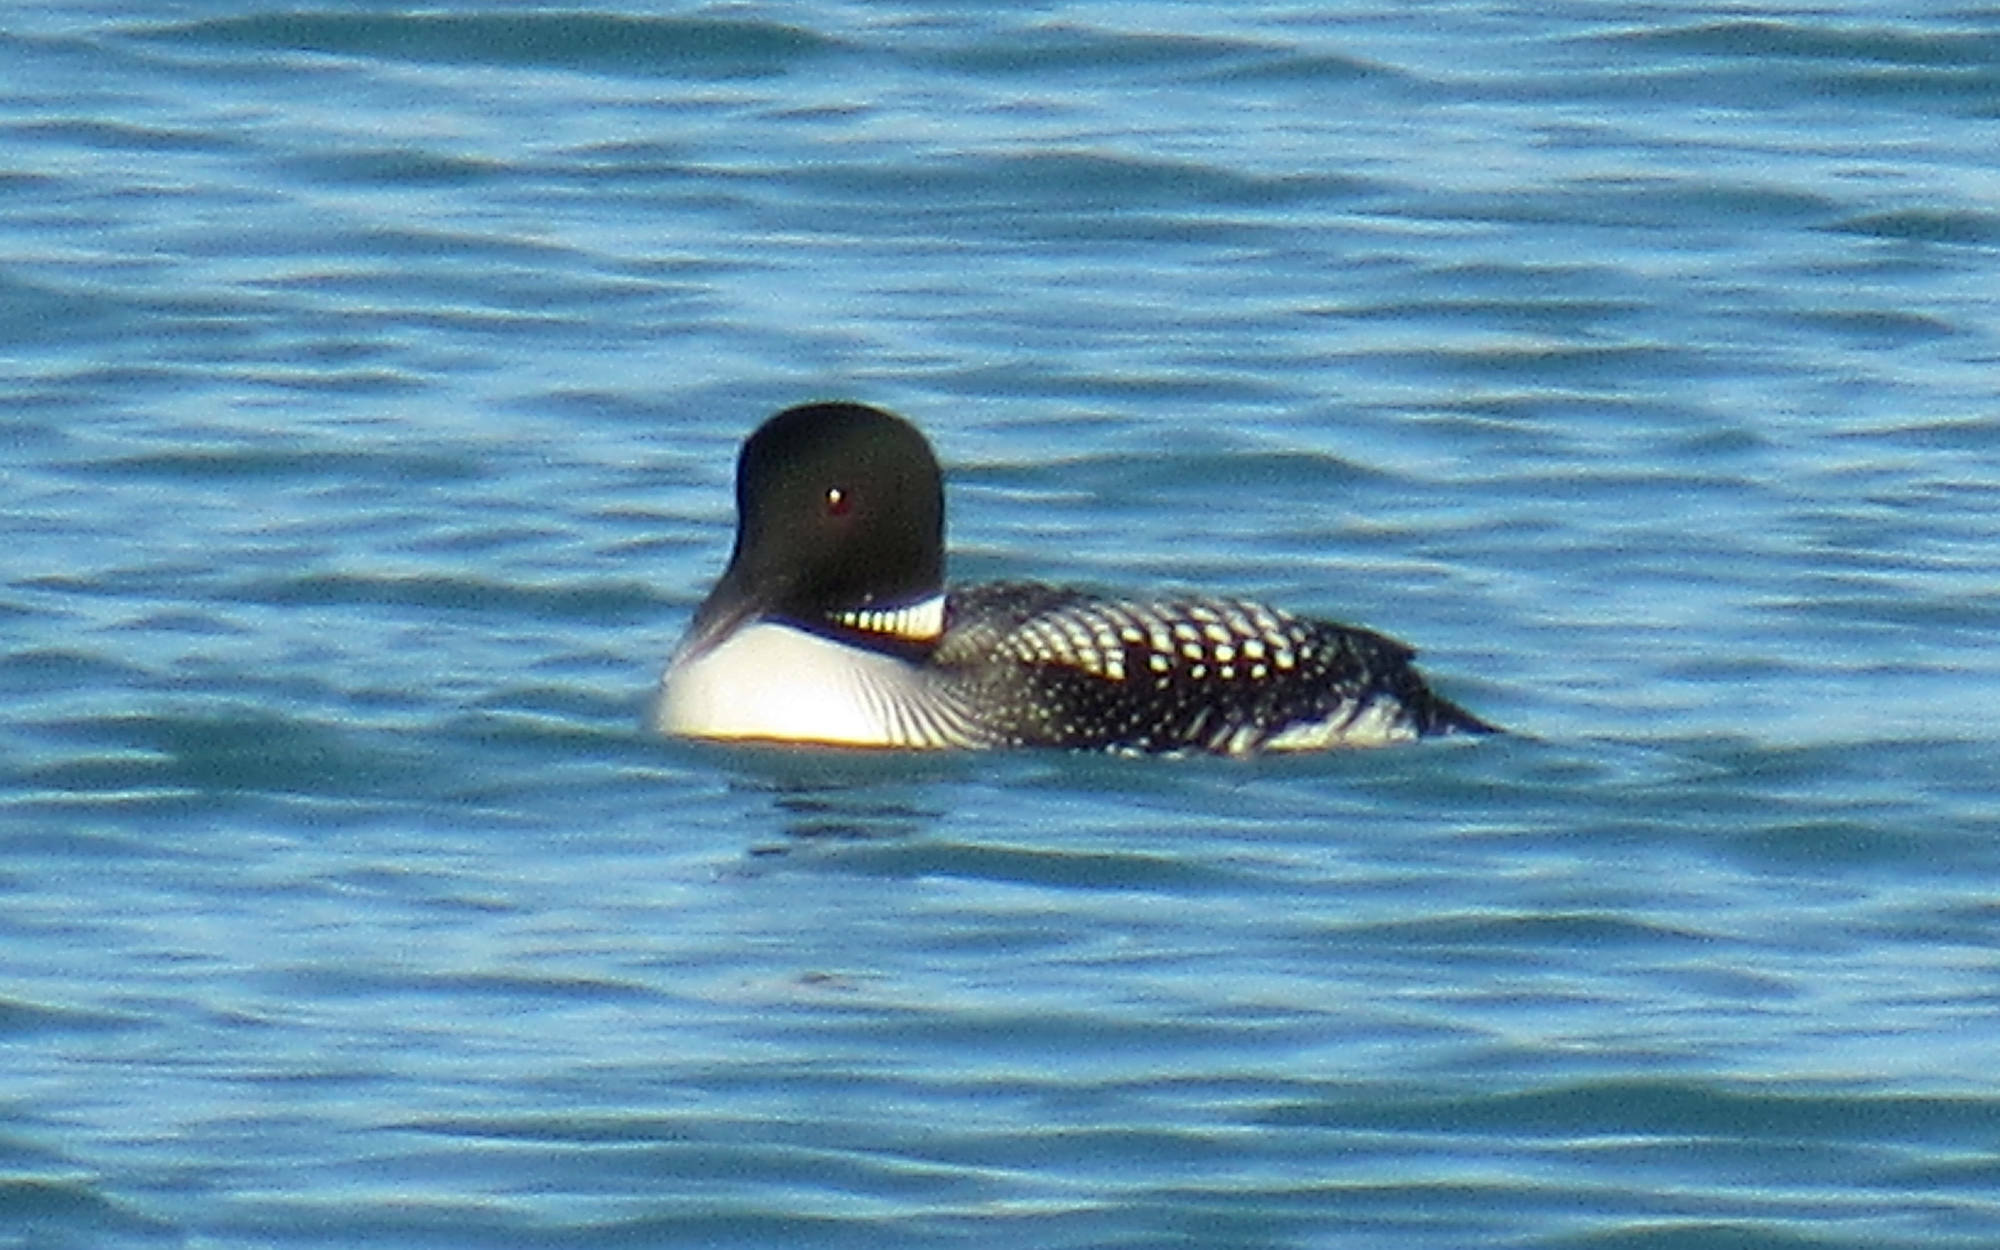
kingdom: Animalia
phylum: Chordata
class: Aves
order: Gaviiformes
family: Gaviidae
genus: Gavia
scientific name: Gavia immer
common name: Common loon
